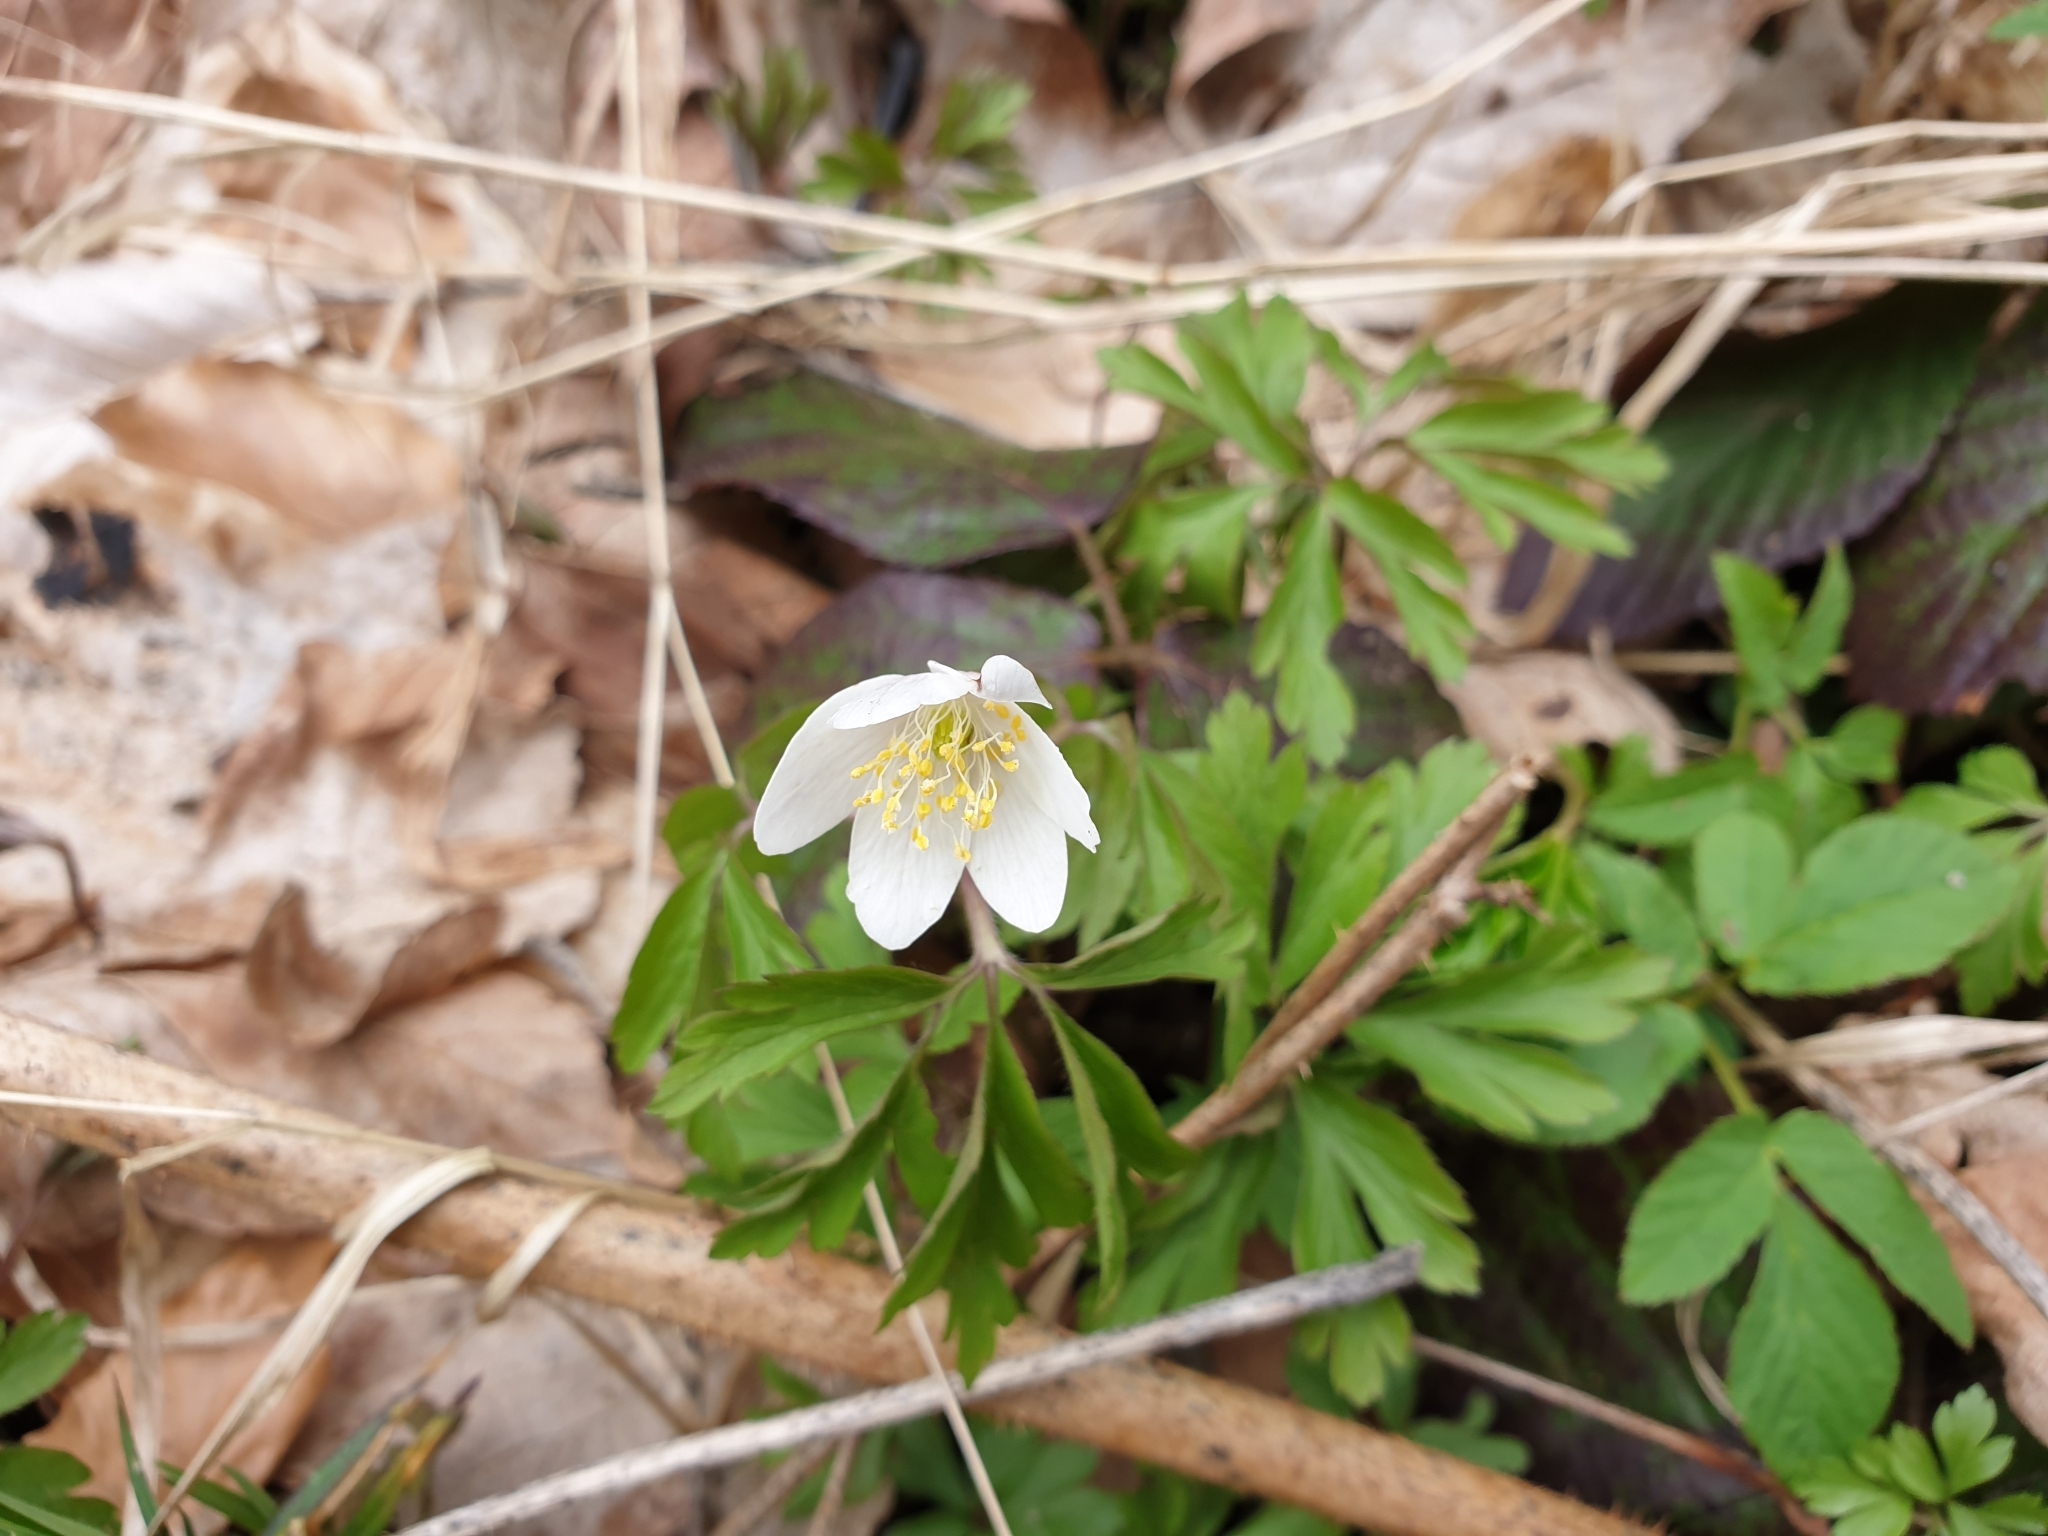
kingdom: Plantae
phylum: Tracheophyta
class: Magnoliopsida
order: Ranunculales
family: Ranunculaceae
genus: Anemone
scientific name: Anemone nemorosa
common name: Wood anemone
